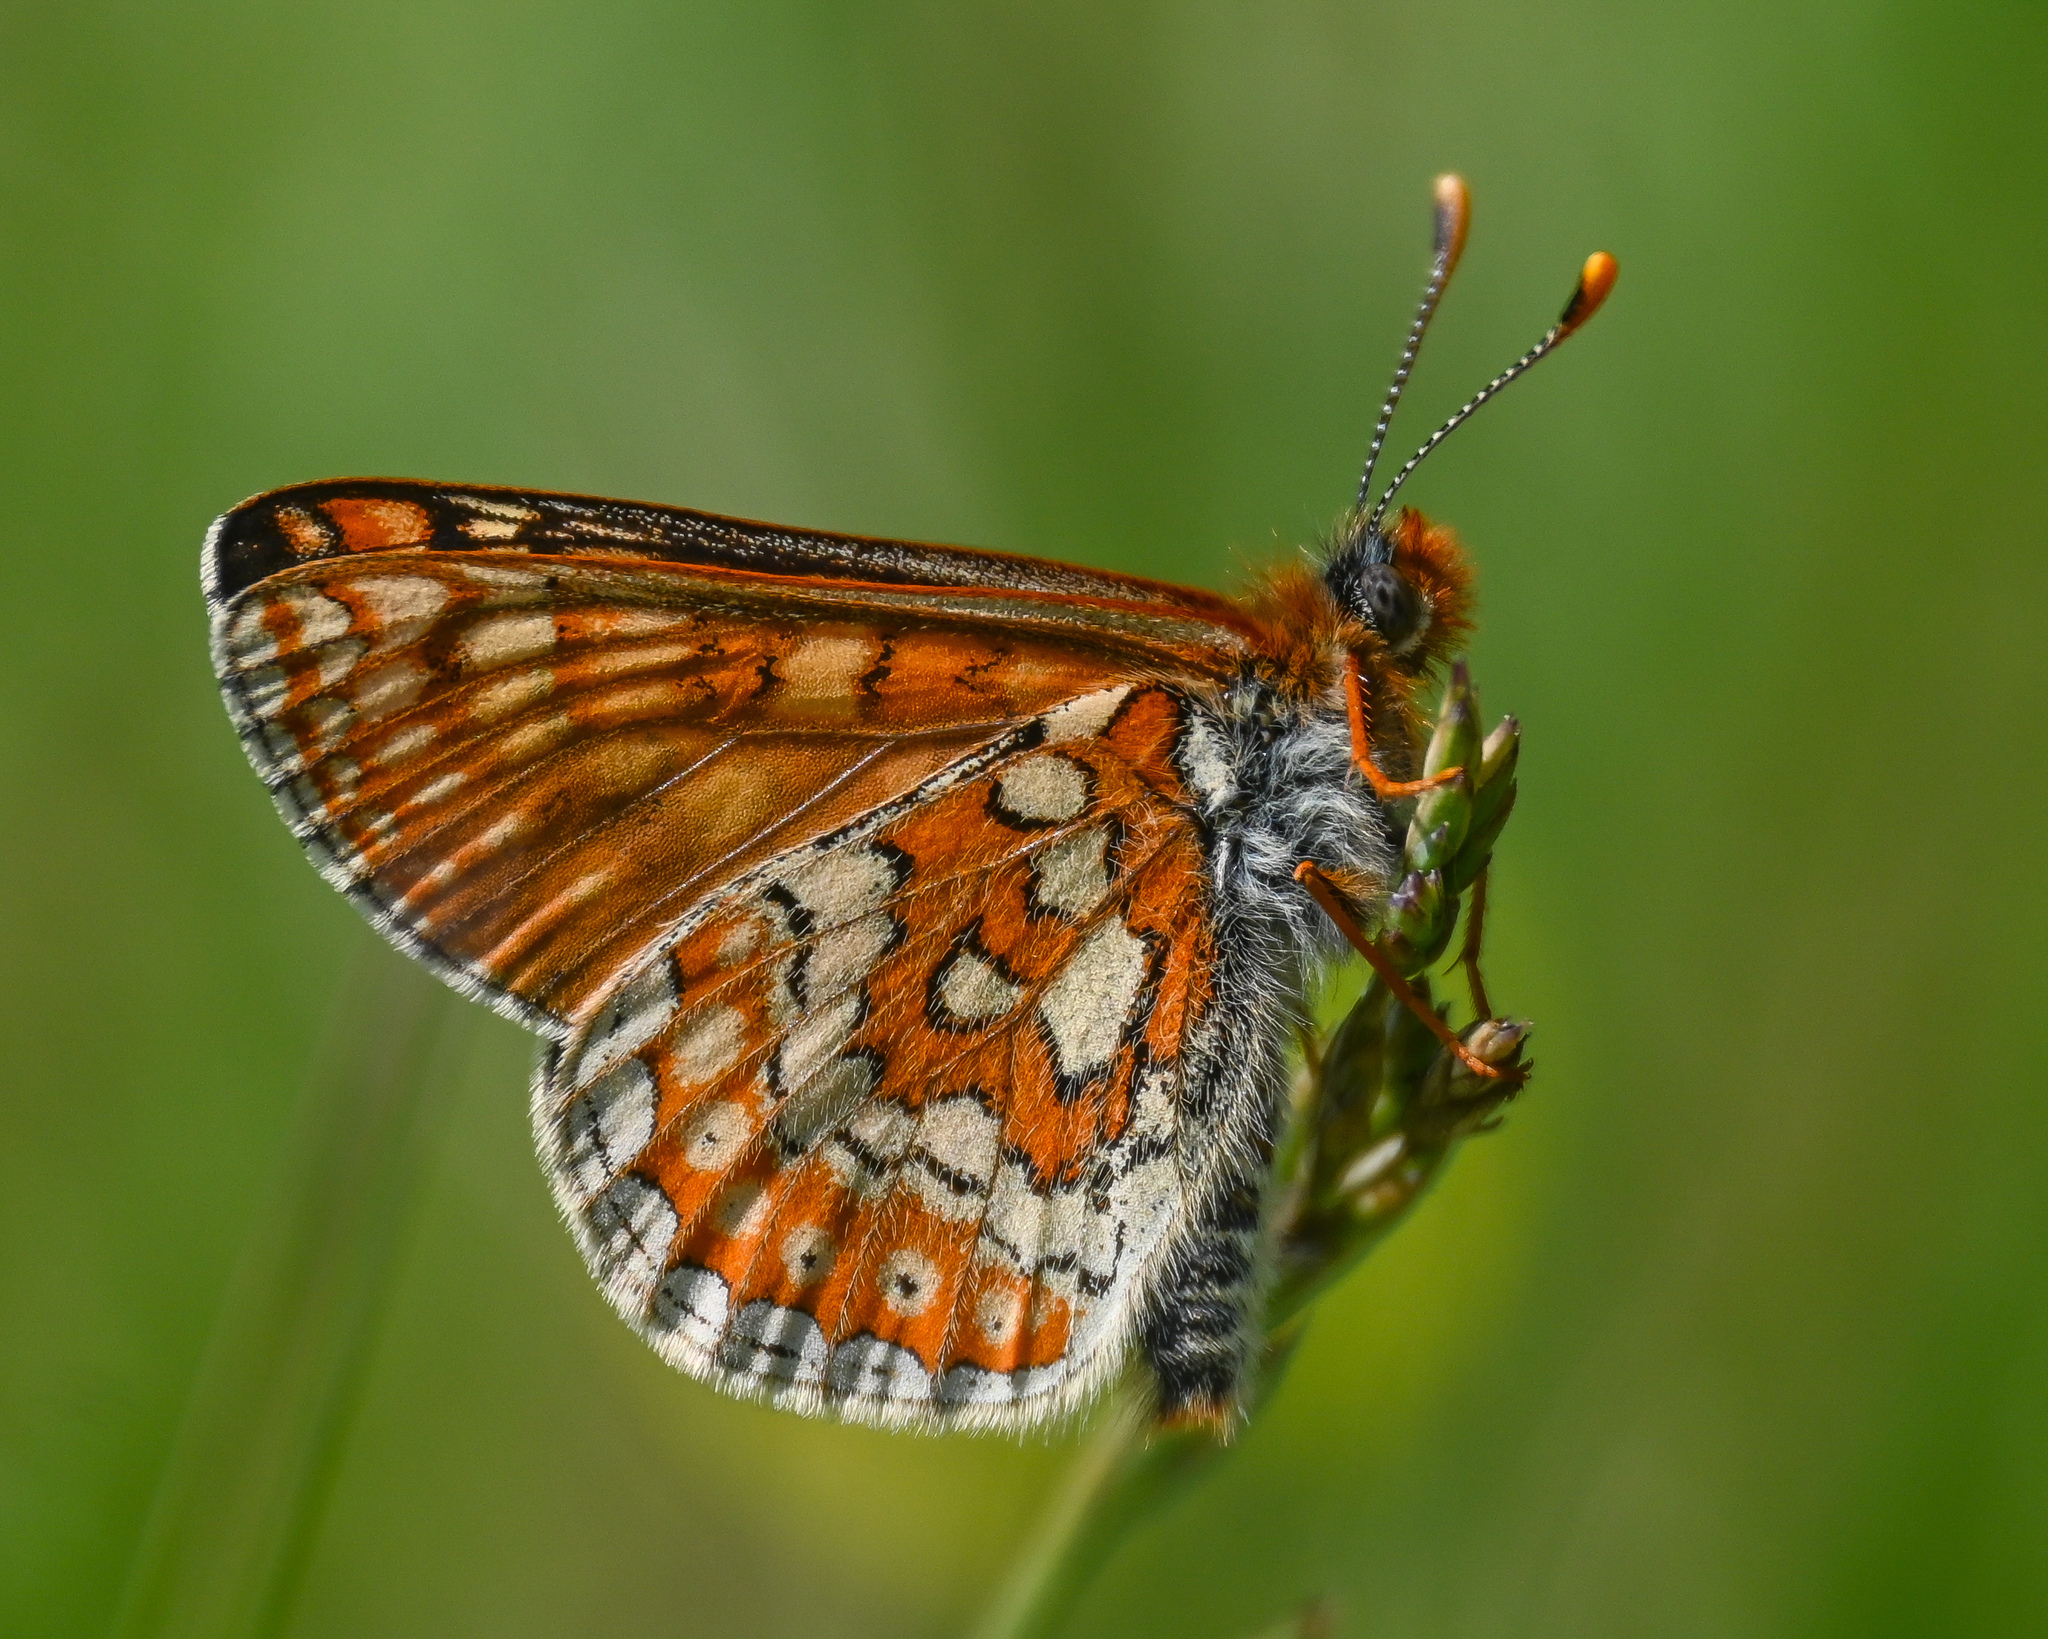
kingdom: Animalia
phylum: Arthropoda
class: Insecta
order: Lepidoptera
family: Nymphalidae
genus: Euphydryas
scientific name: Euphydryas aurinia
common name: Marsh fritillary
